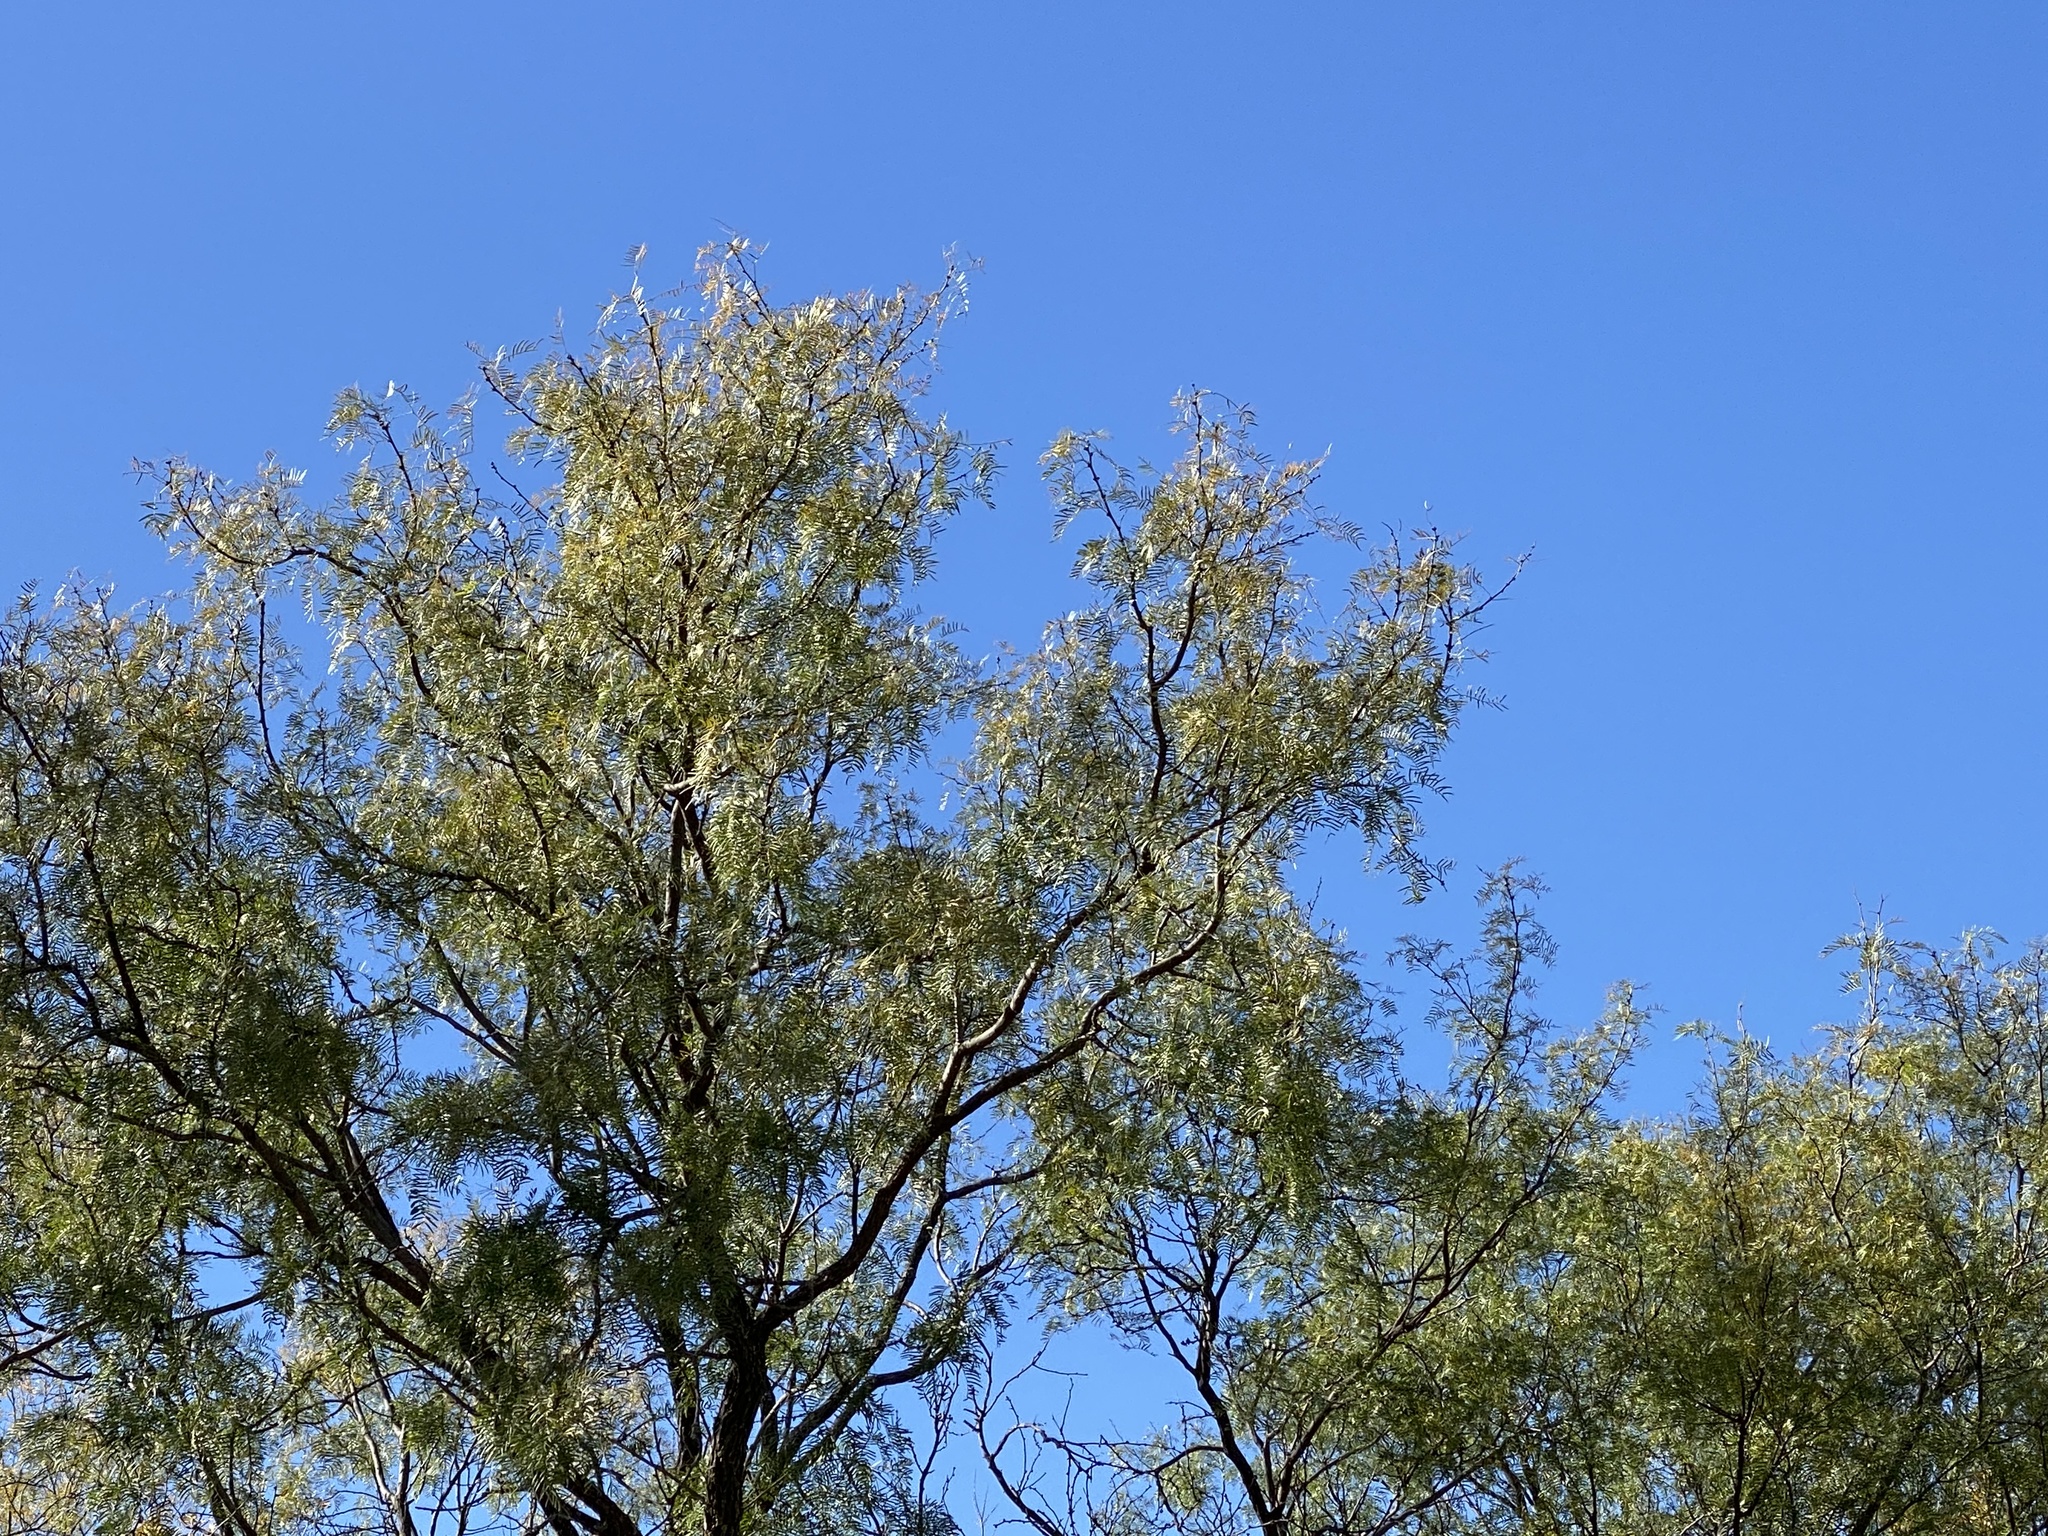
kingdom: Plantae
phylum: Tracheophyta
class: Magnoliopsida
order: Fabales
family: Fabaceae
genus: Prosopis
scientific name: Prosopis glandulosa
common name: Honey mesquite
